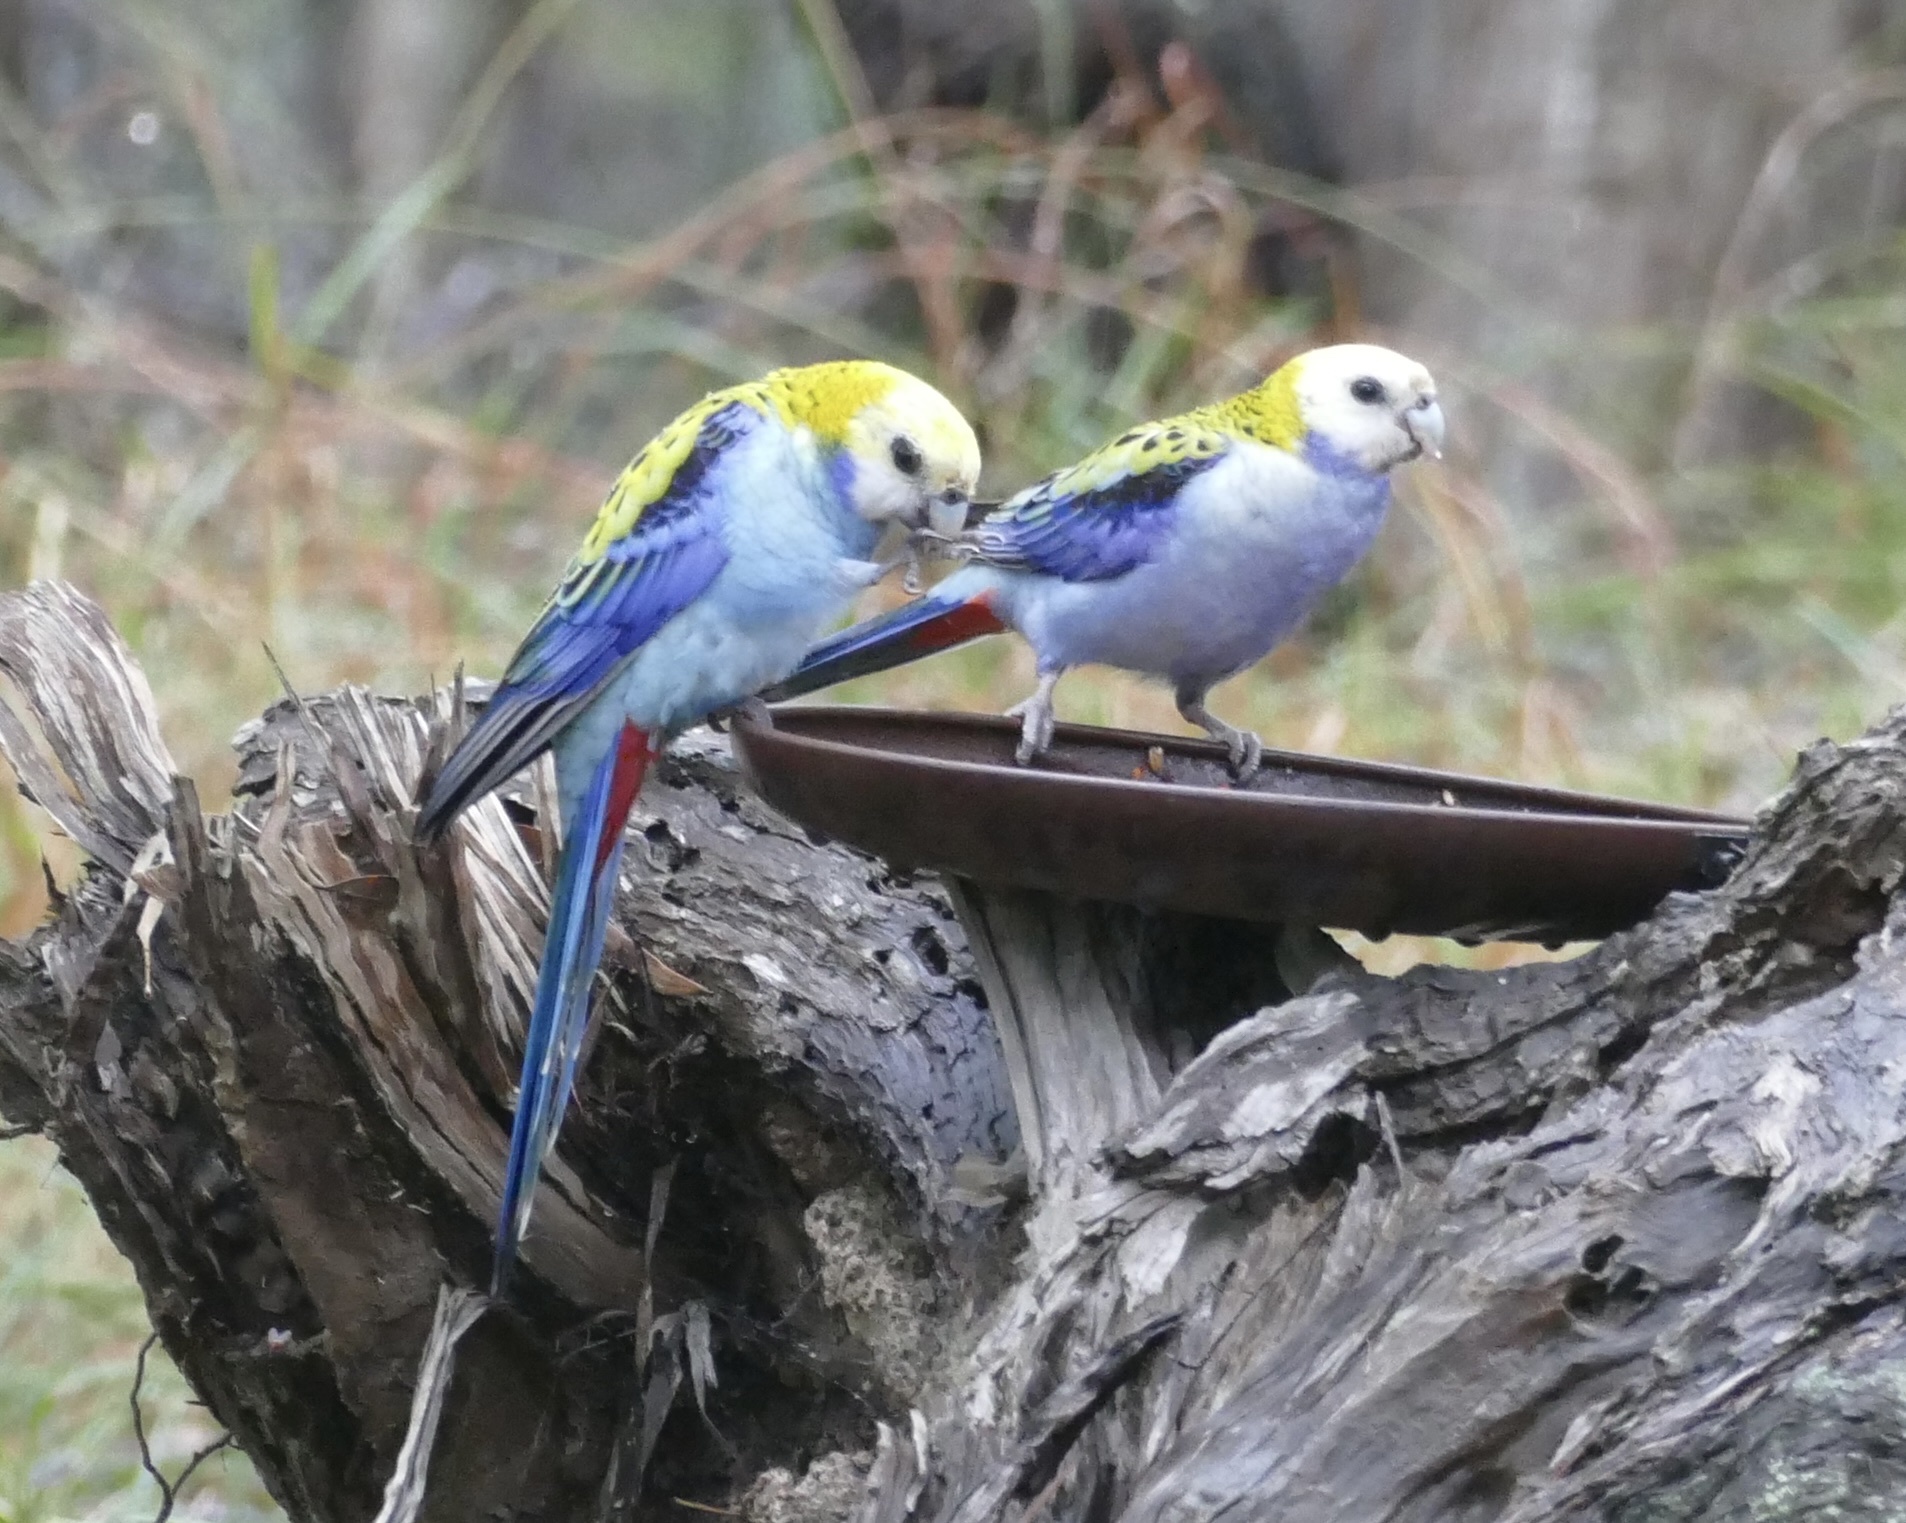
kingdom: Animalia
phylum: Chordata
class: Aves
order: Psittaciformes
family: Psittacidae
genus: Platycercus
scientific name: Platycercus adscitus
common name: Pale-headed rosella
